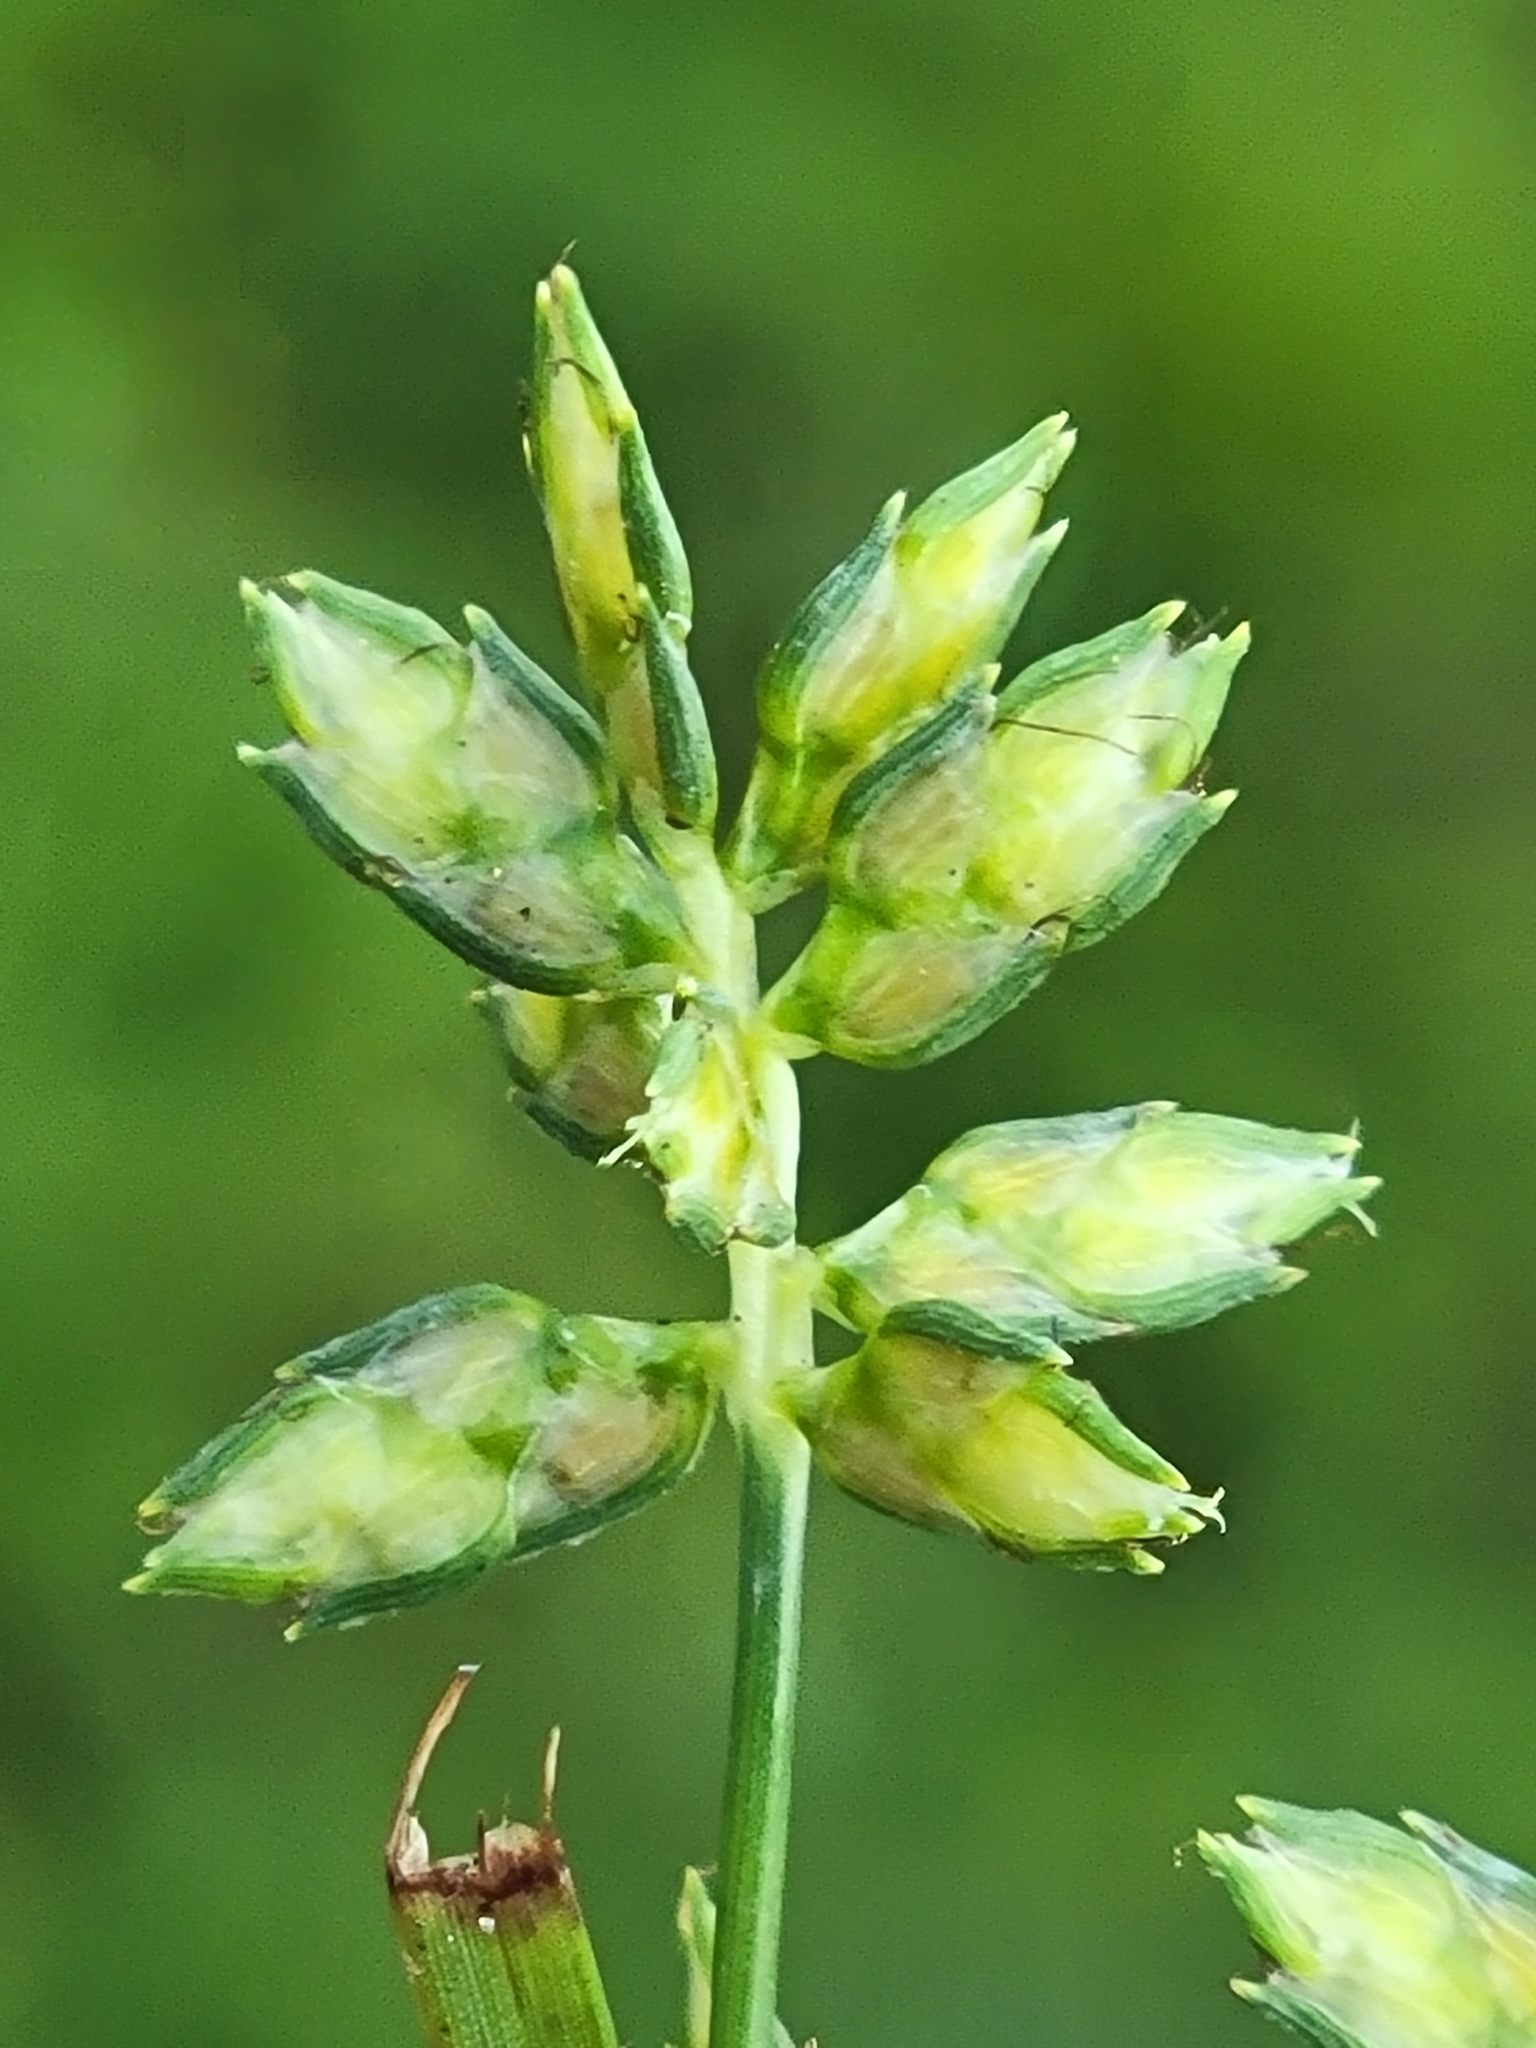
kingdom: Plantae
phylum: Tracheophyta
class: Liliopsida
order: Poales
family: Cyperaceae
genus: Cyperus
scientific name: Cyperus hyalinus
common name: Queensland sedge
